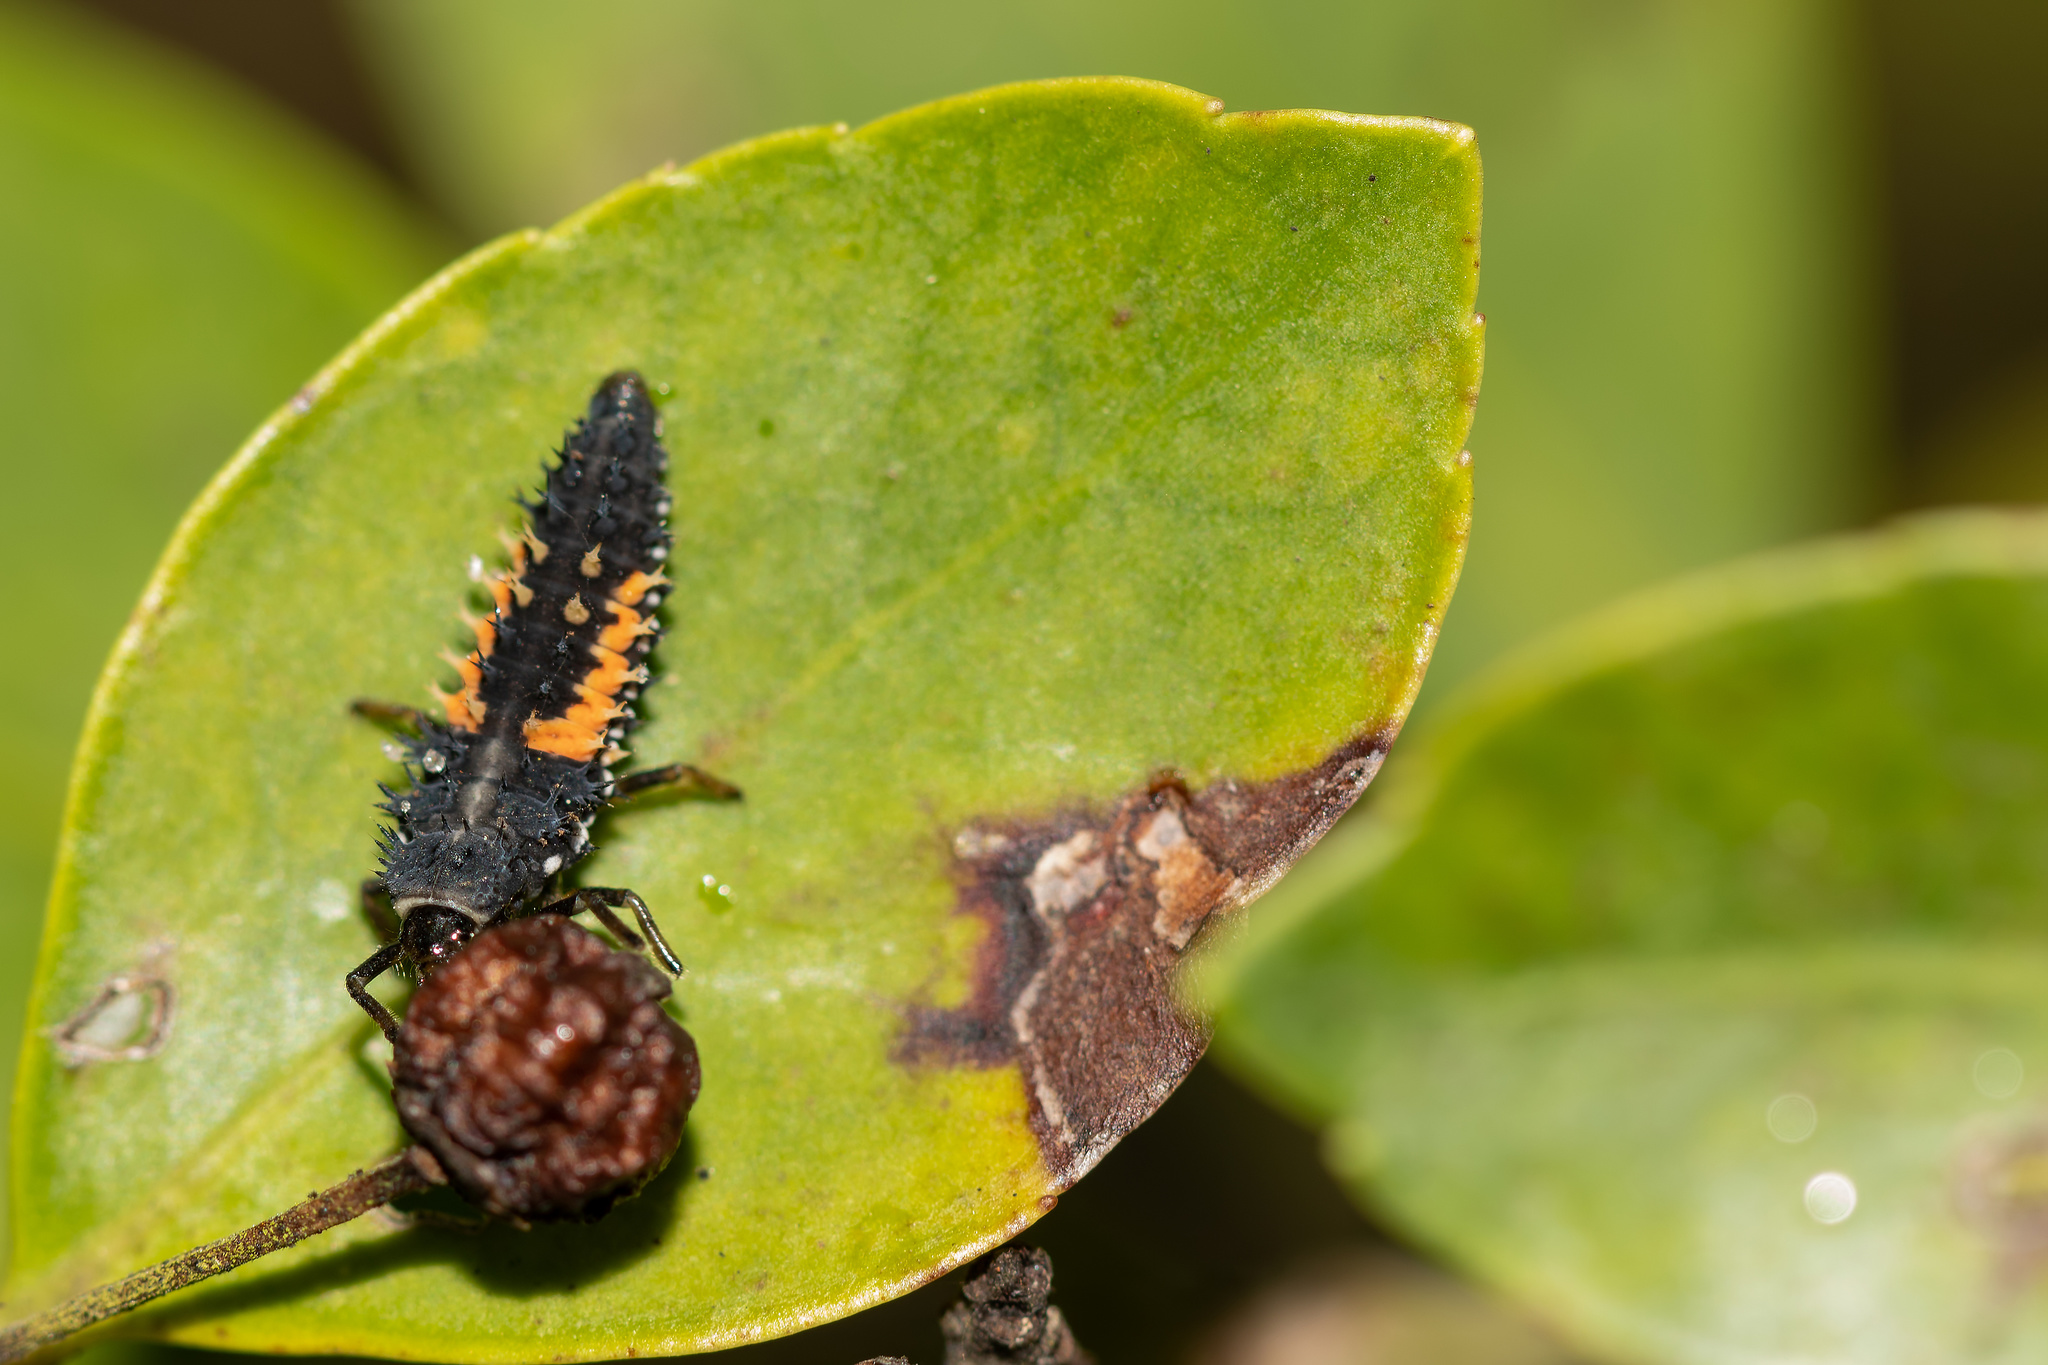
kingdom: Animalia
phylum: Arthropoda
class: Insecta
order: Coleoptera
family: Coccinellidae
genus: Harmonia
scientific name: Harmonia axyridis
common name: Harlequin ladybird
